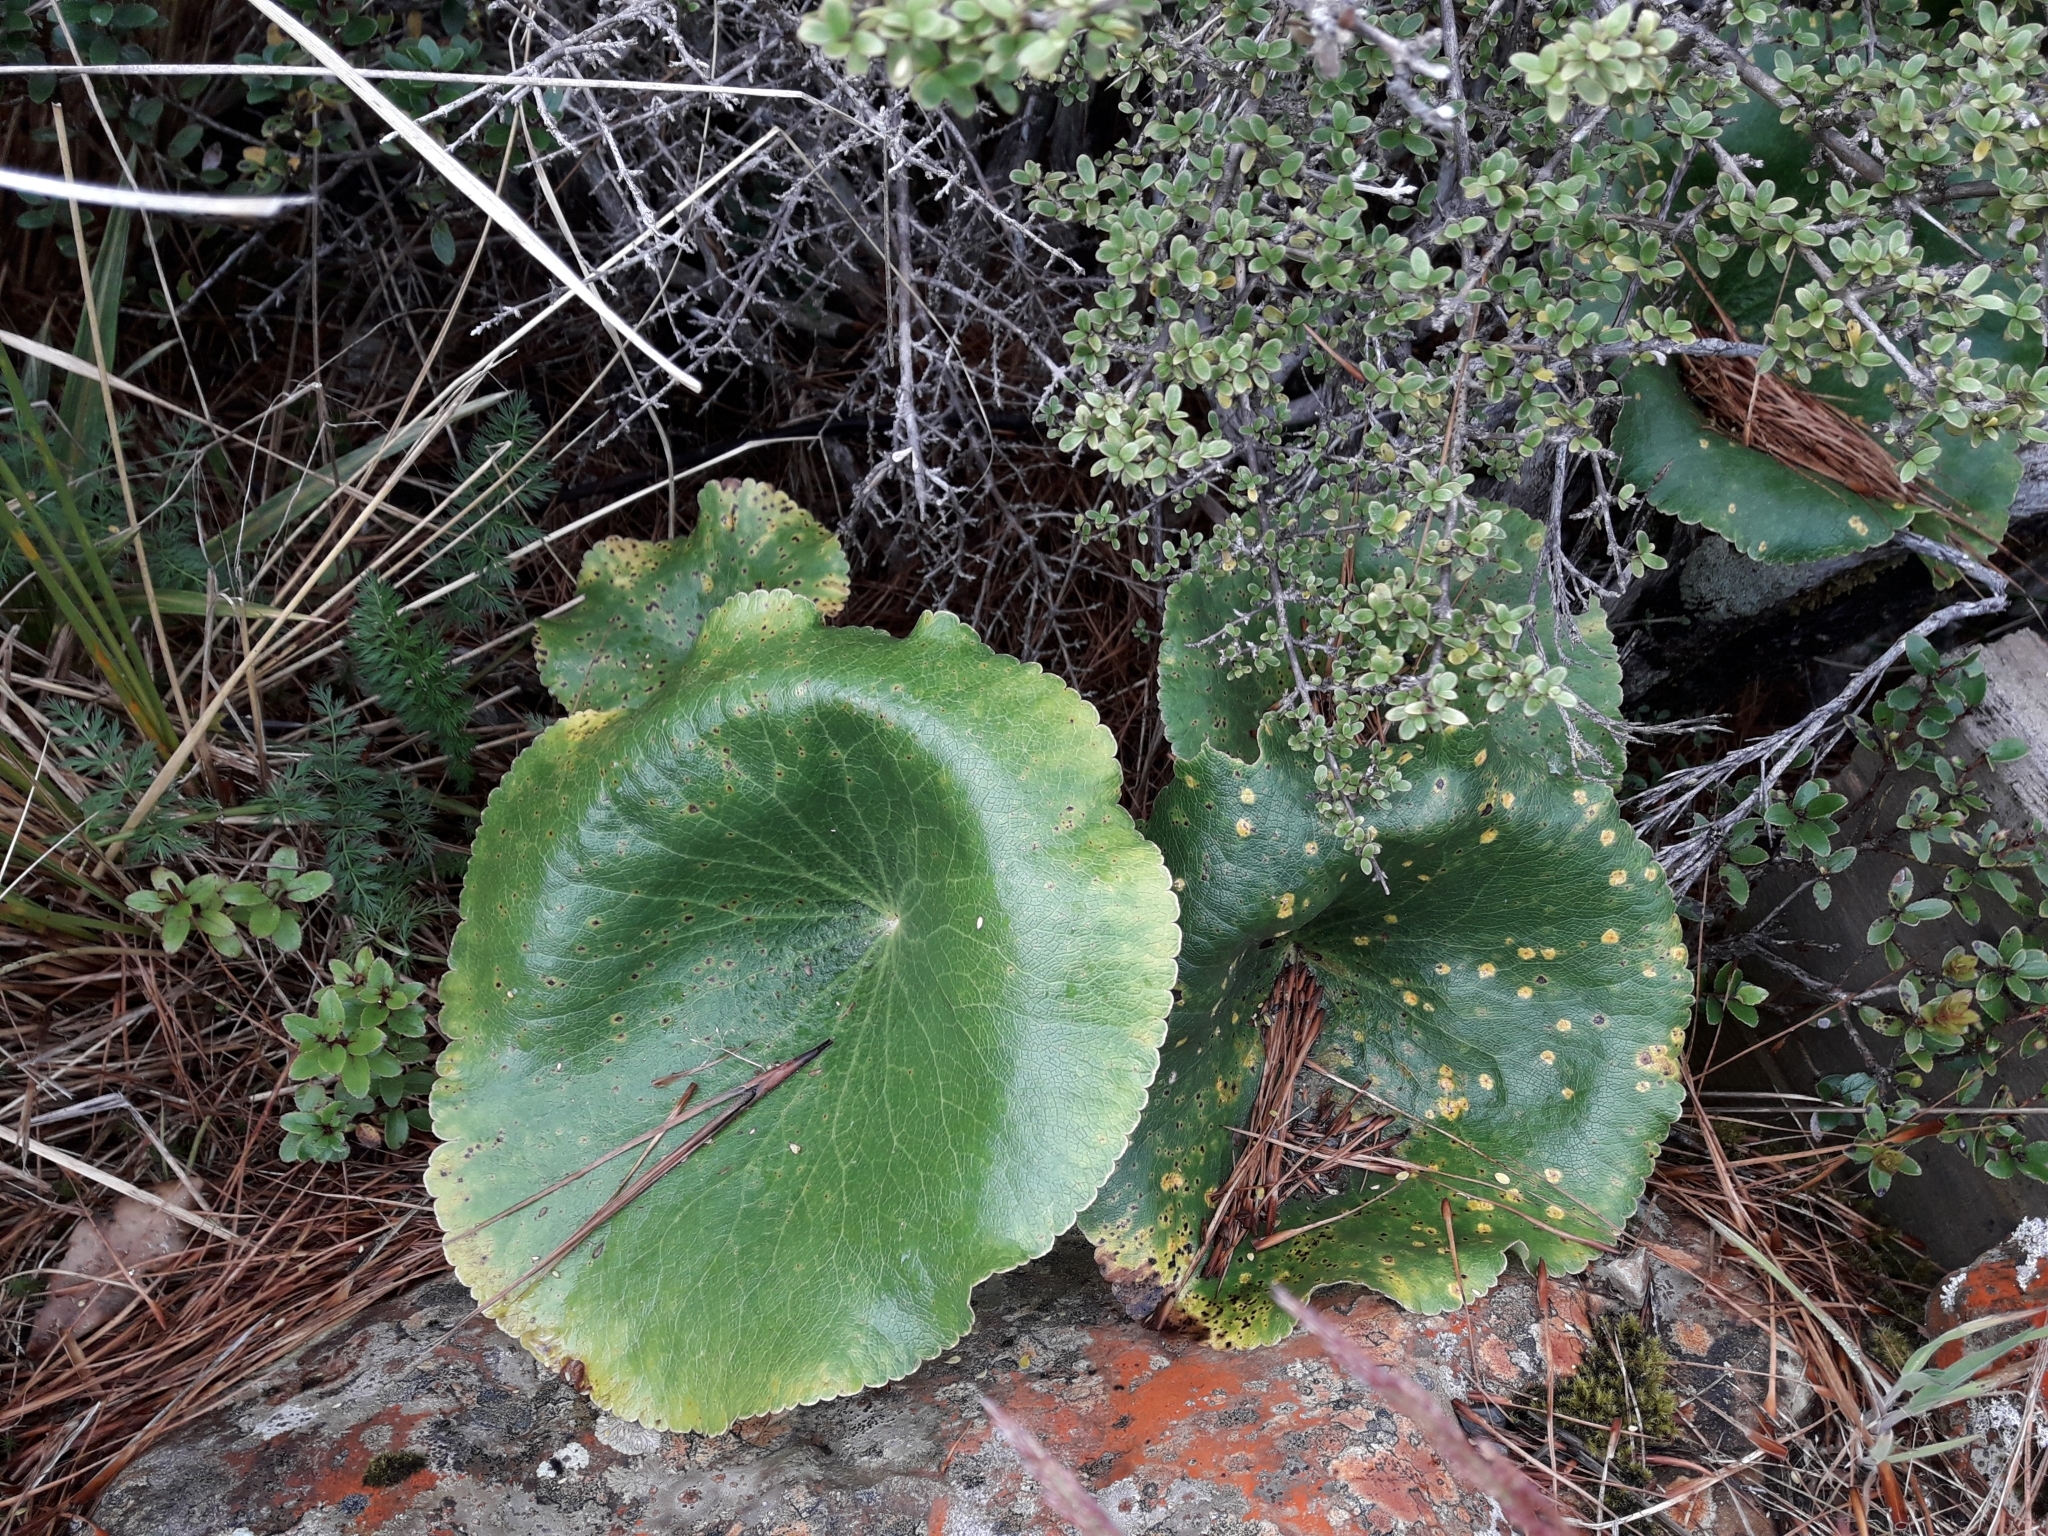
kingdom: Plantae
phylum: Tracheophyta
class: Magnoliopsida
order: Ranunculales
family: Ranunculaceae
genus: Ranunculus
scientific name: Ranunculus lyallii
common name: Mountain-lily
